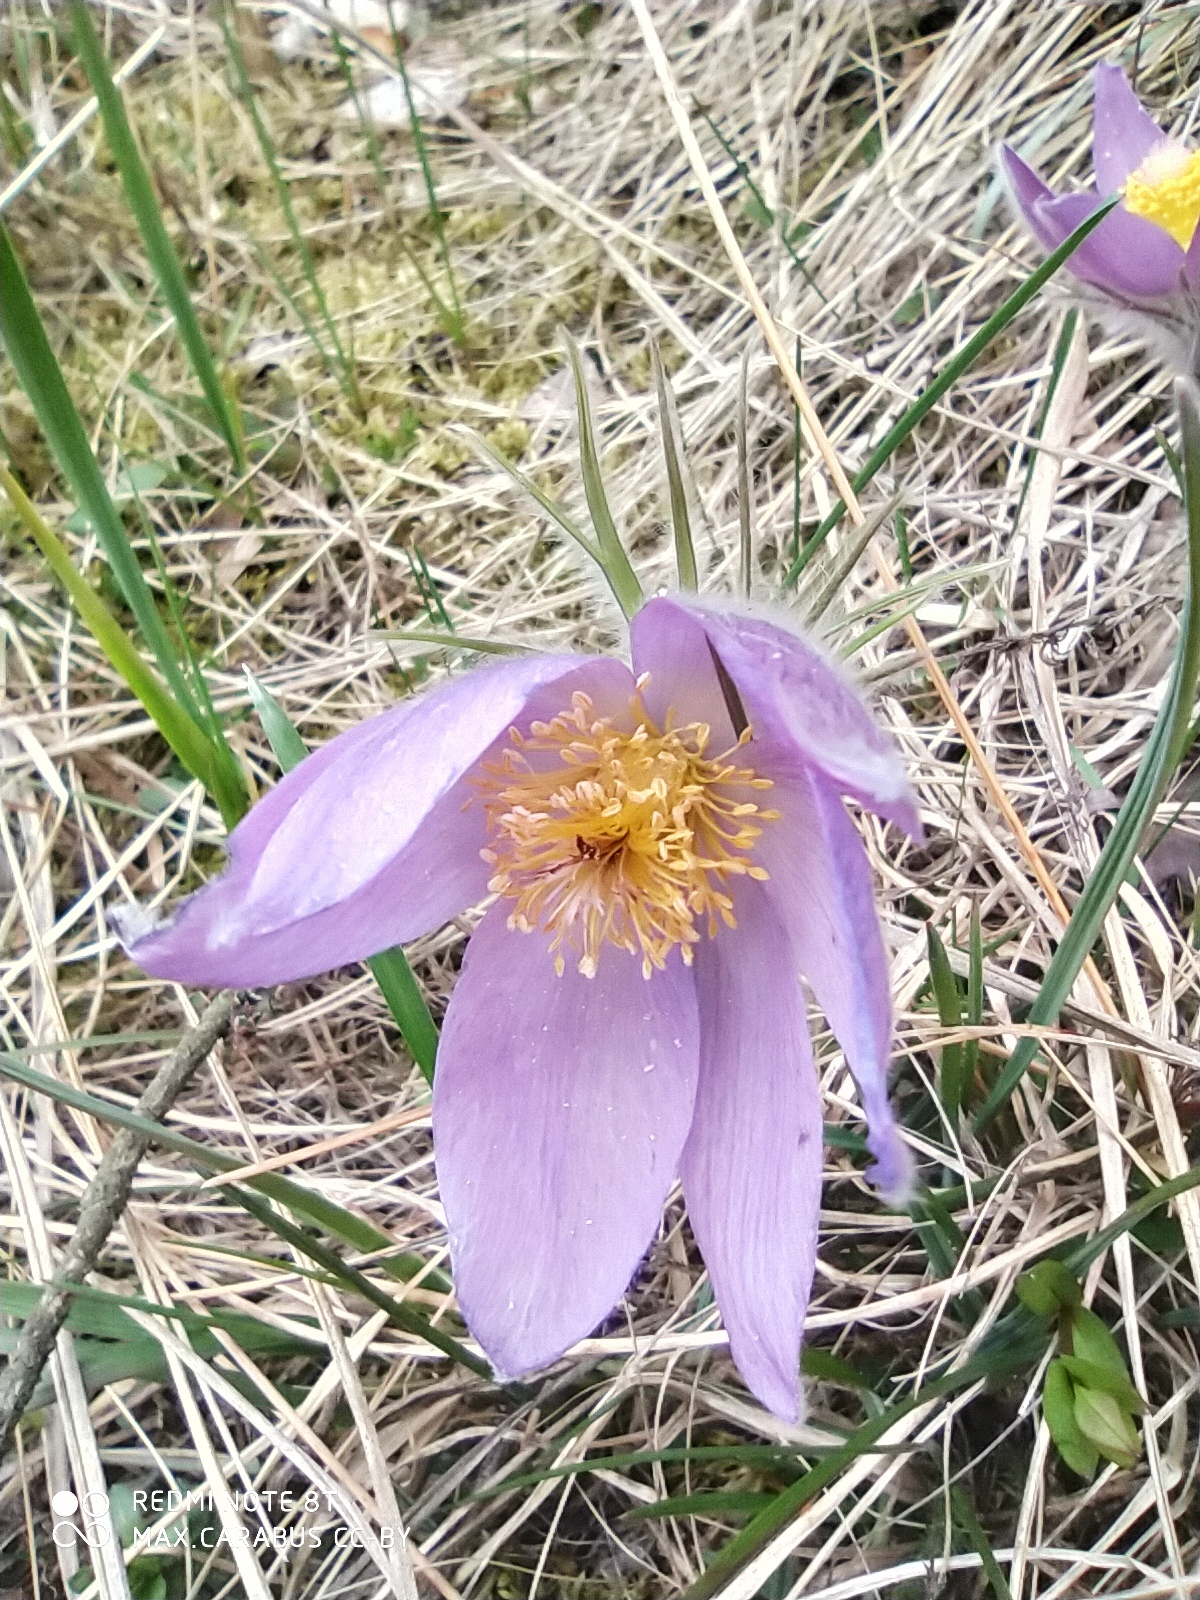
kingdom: Plantae
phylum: Tracheophyta
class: Magnoliopsida
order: Ranunculales
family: Ranunculaceae
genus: Pulsatilla
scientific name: Pulsatilla patens
